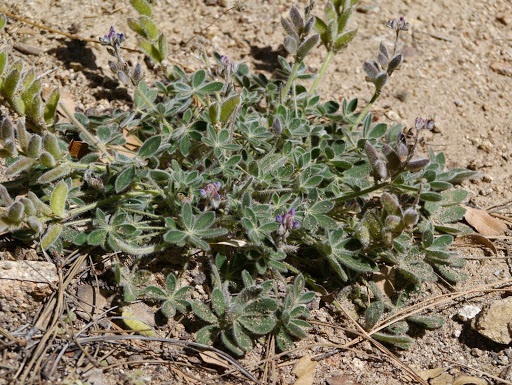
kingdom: Plantae
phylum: Tracheophyta
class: Magnoliopsida
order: Fabales
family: Fabaceae
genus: Lupinus
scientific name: Lupinus huachucanus
